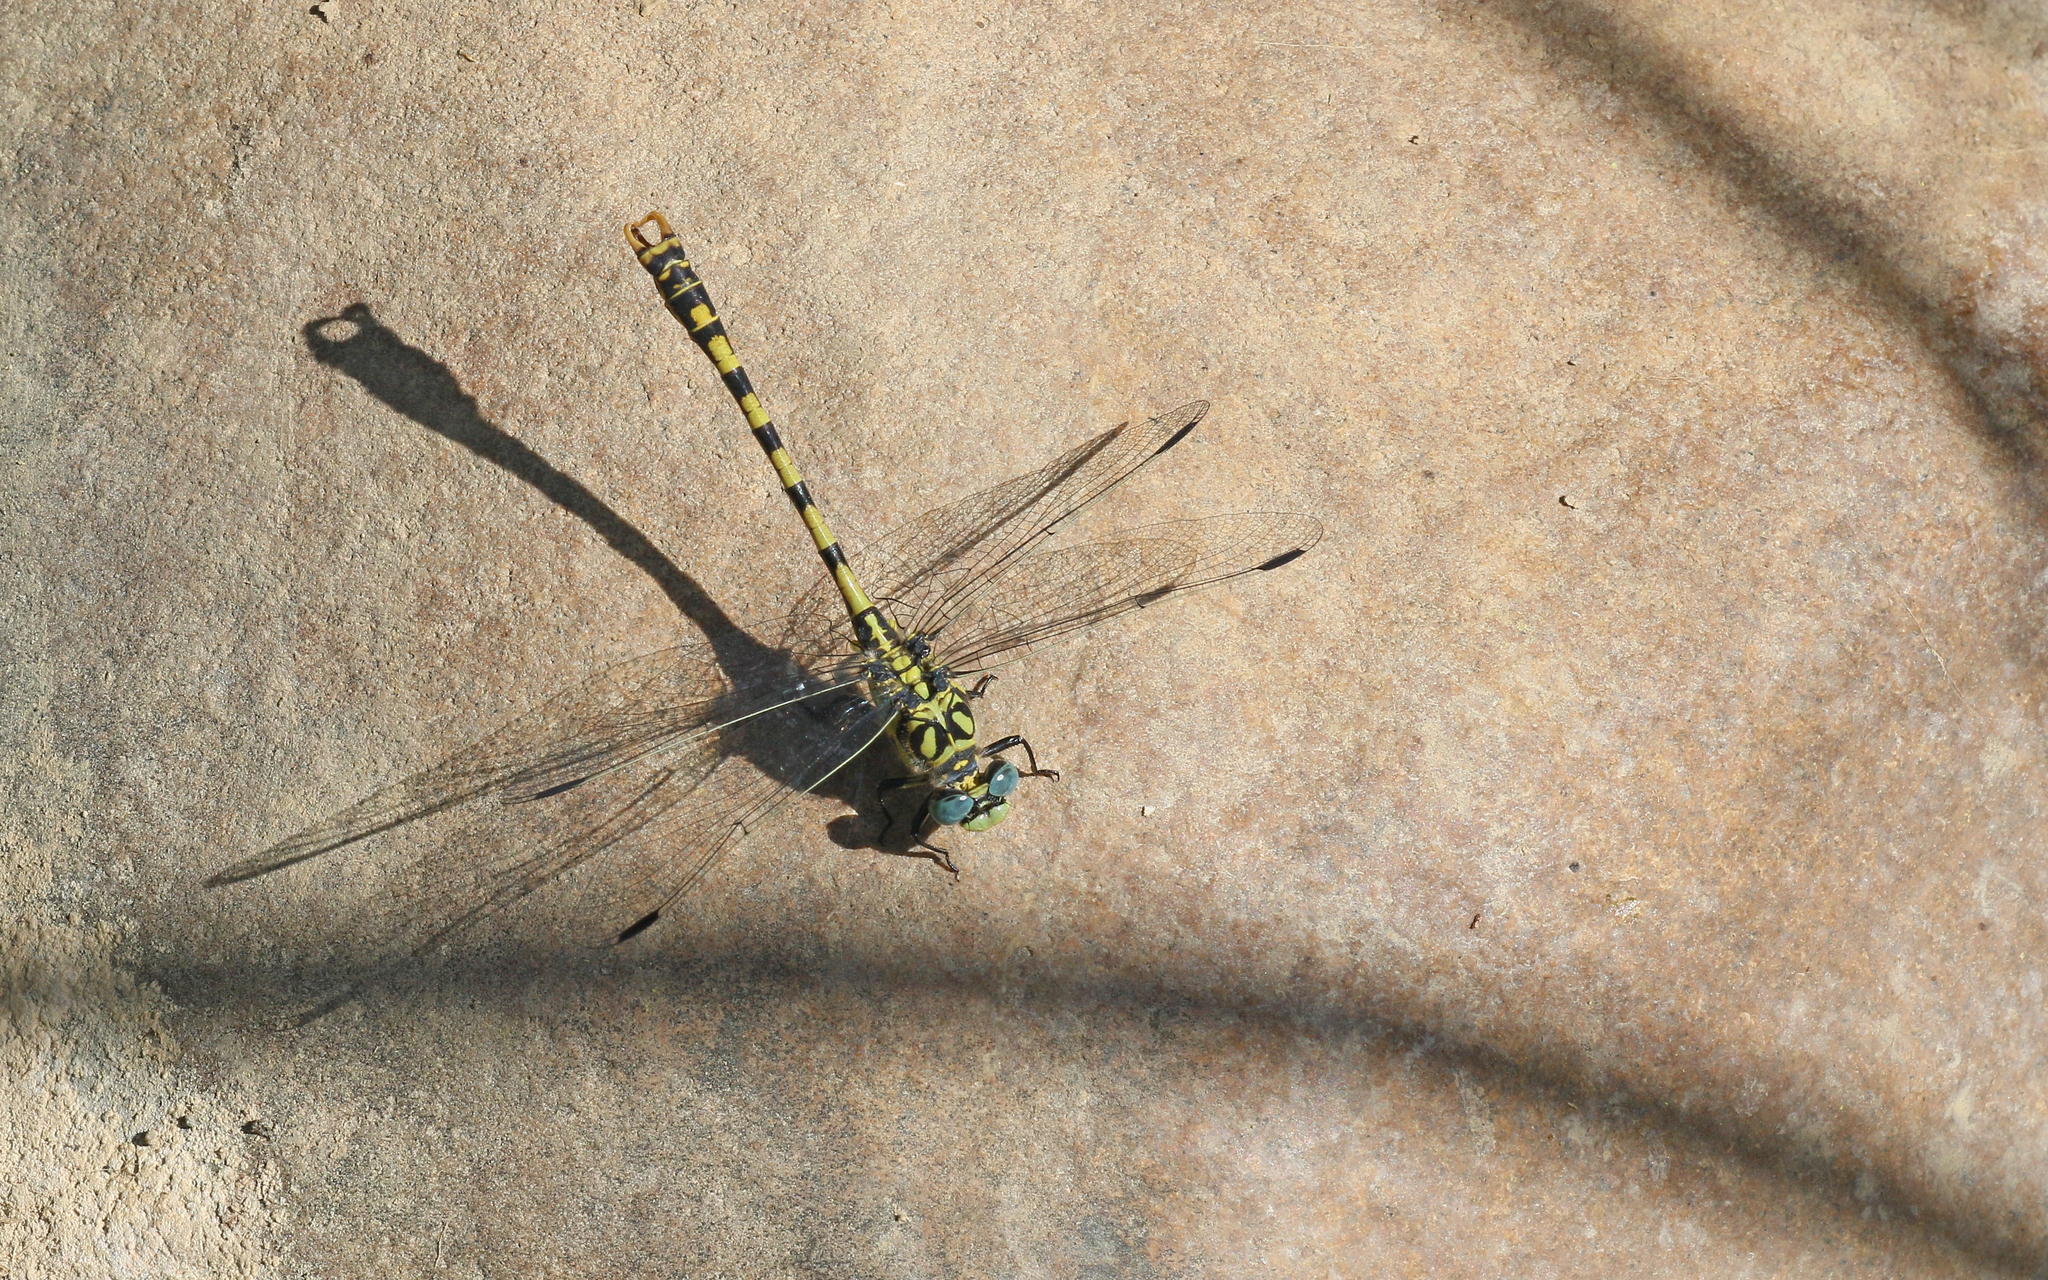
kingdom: Animalia
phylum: Arthropoda
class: Insecta
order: Odonata
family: Gomphidae
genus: Onychogomphus
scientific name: Onychogomphus forcipatus
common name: Small pincertail
